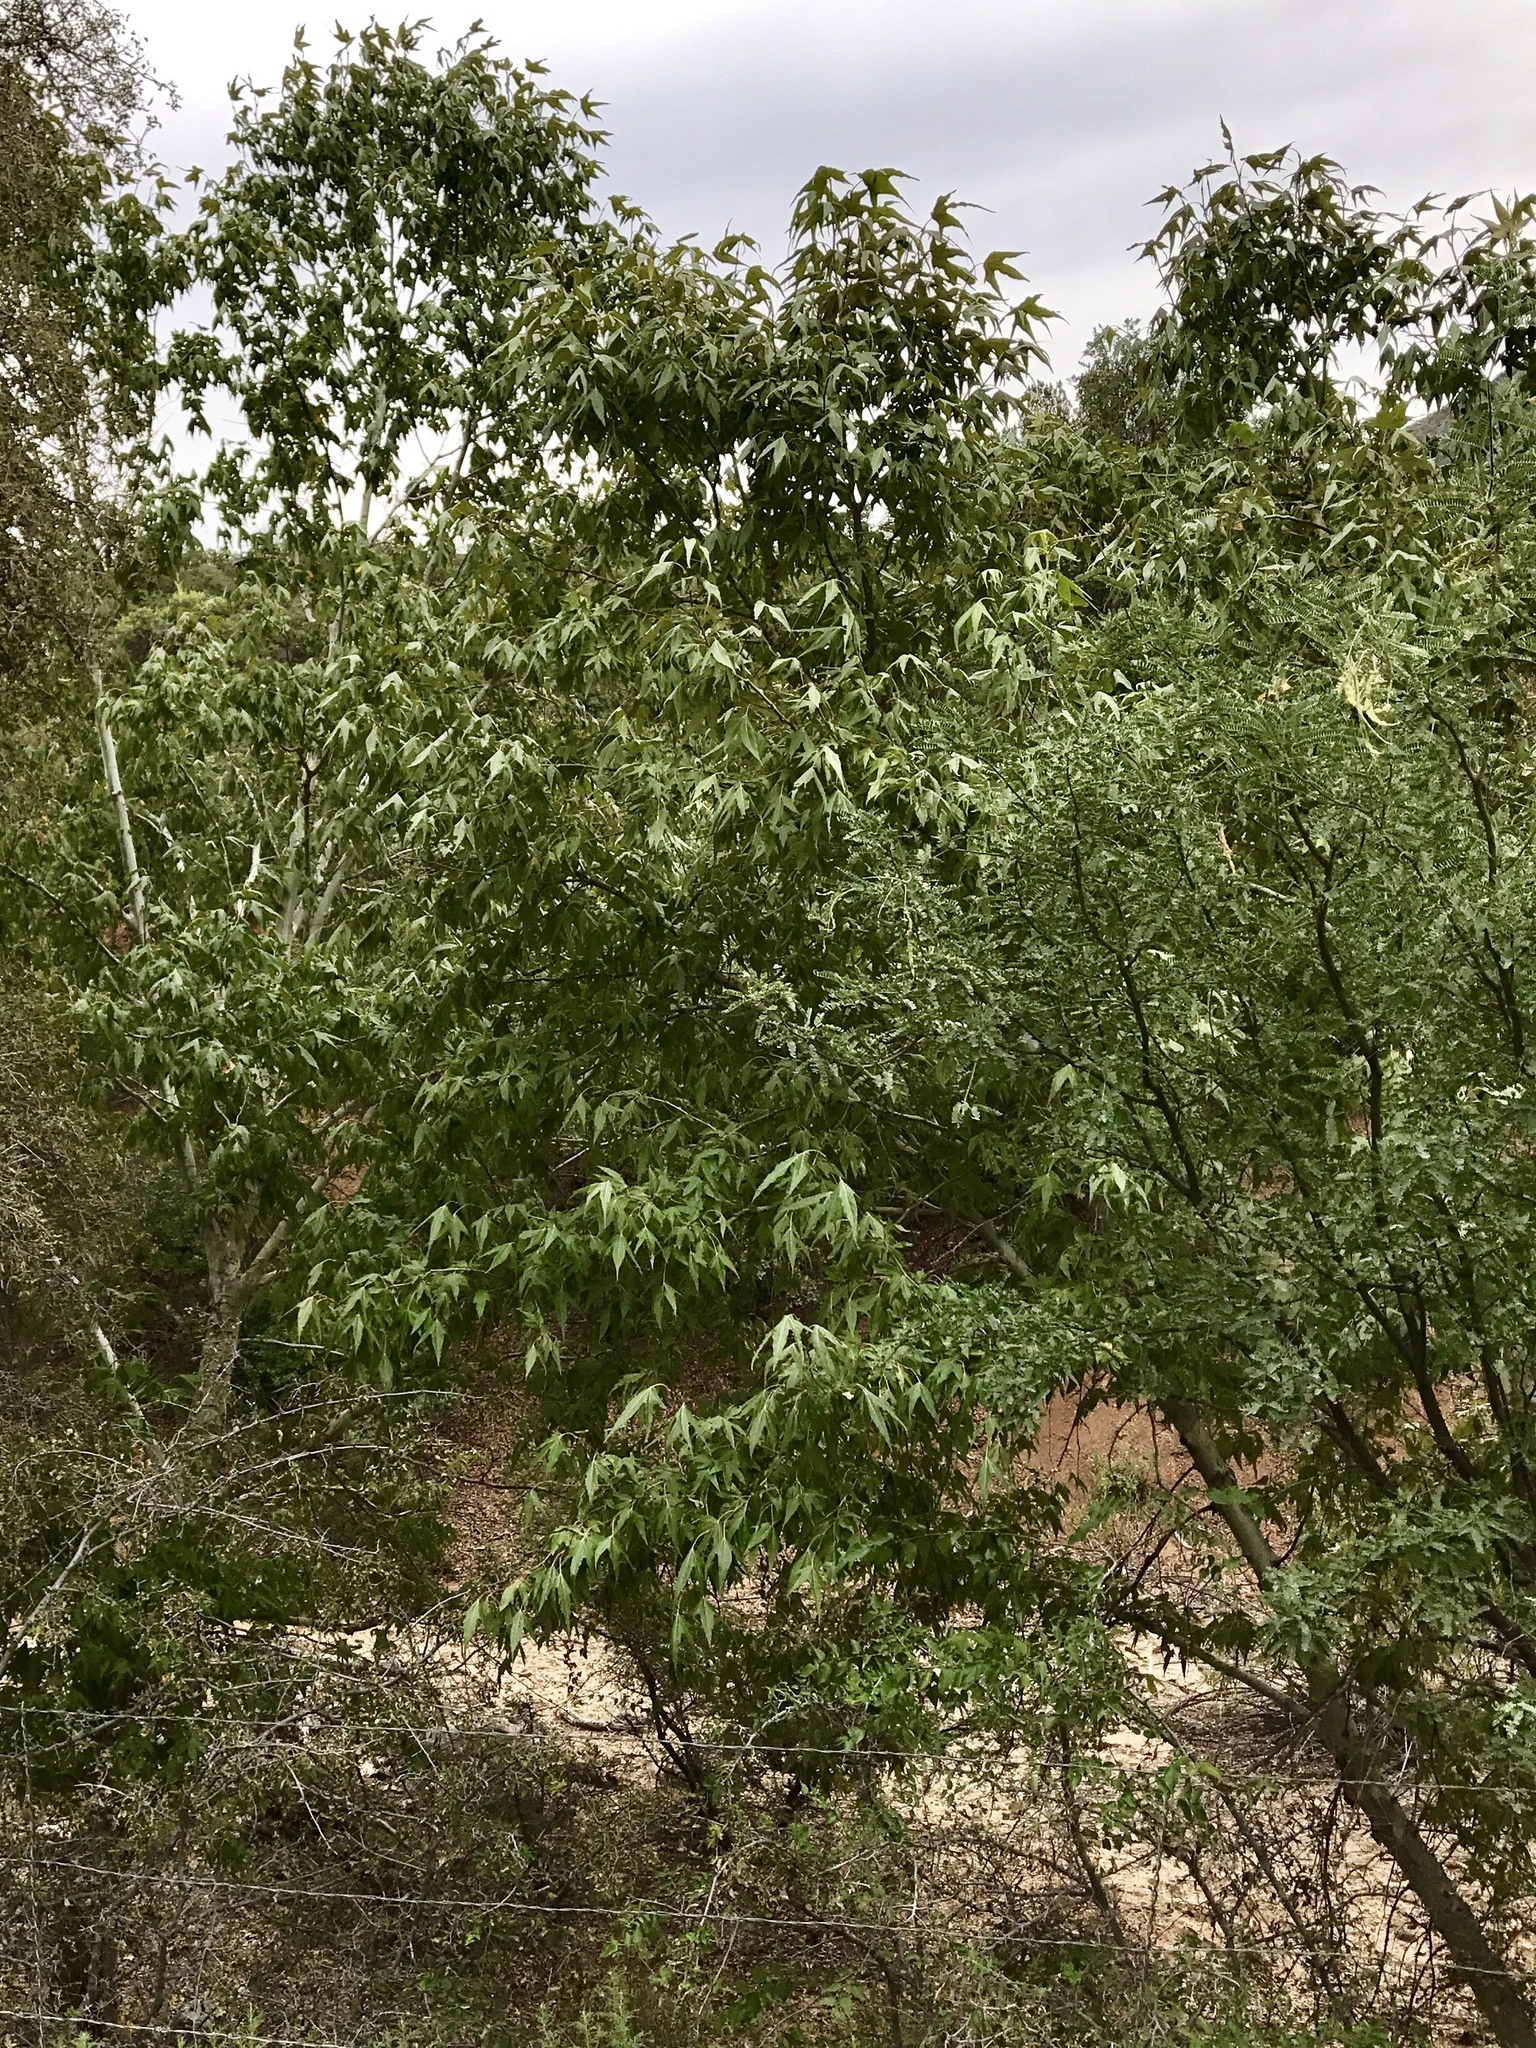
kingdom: Plantae
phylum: Tracheophyta
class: Magnoliopsida
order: Proteales
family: Platanaceae
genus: Platanus
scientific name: Platanus wrightii
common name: Arizona sycamore
